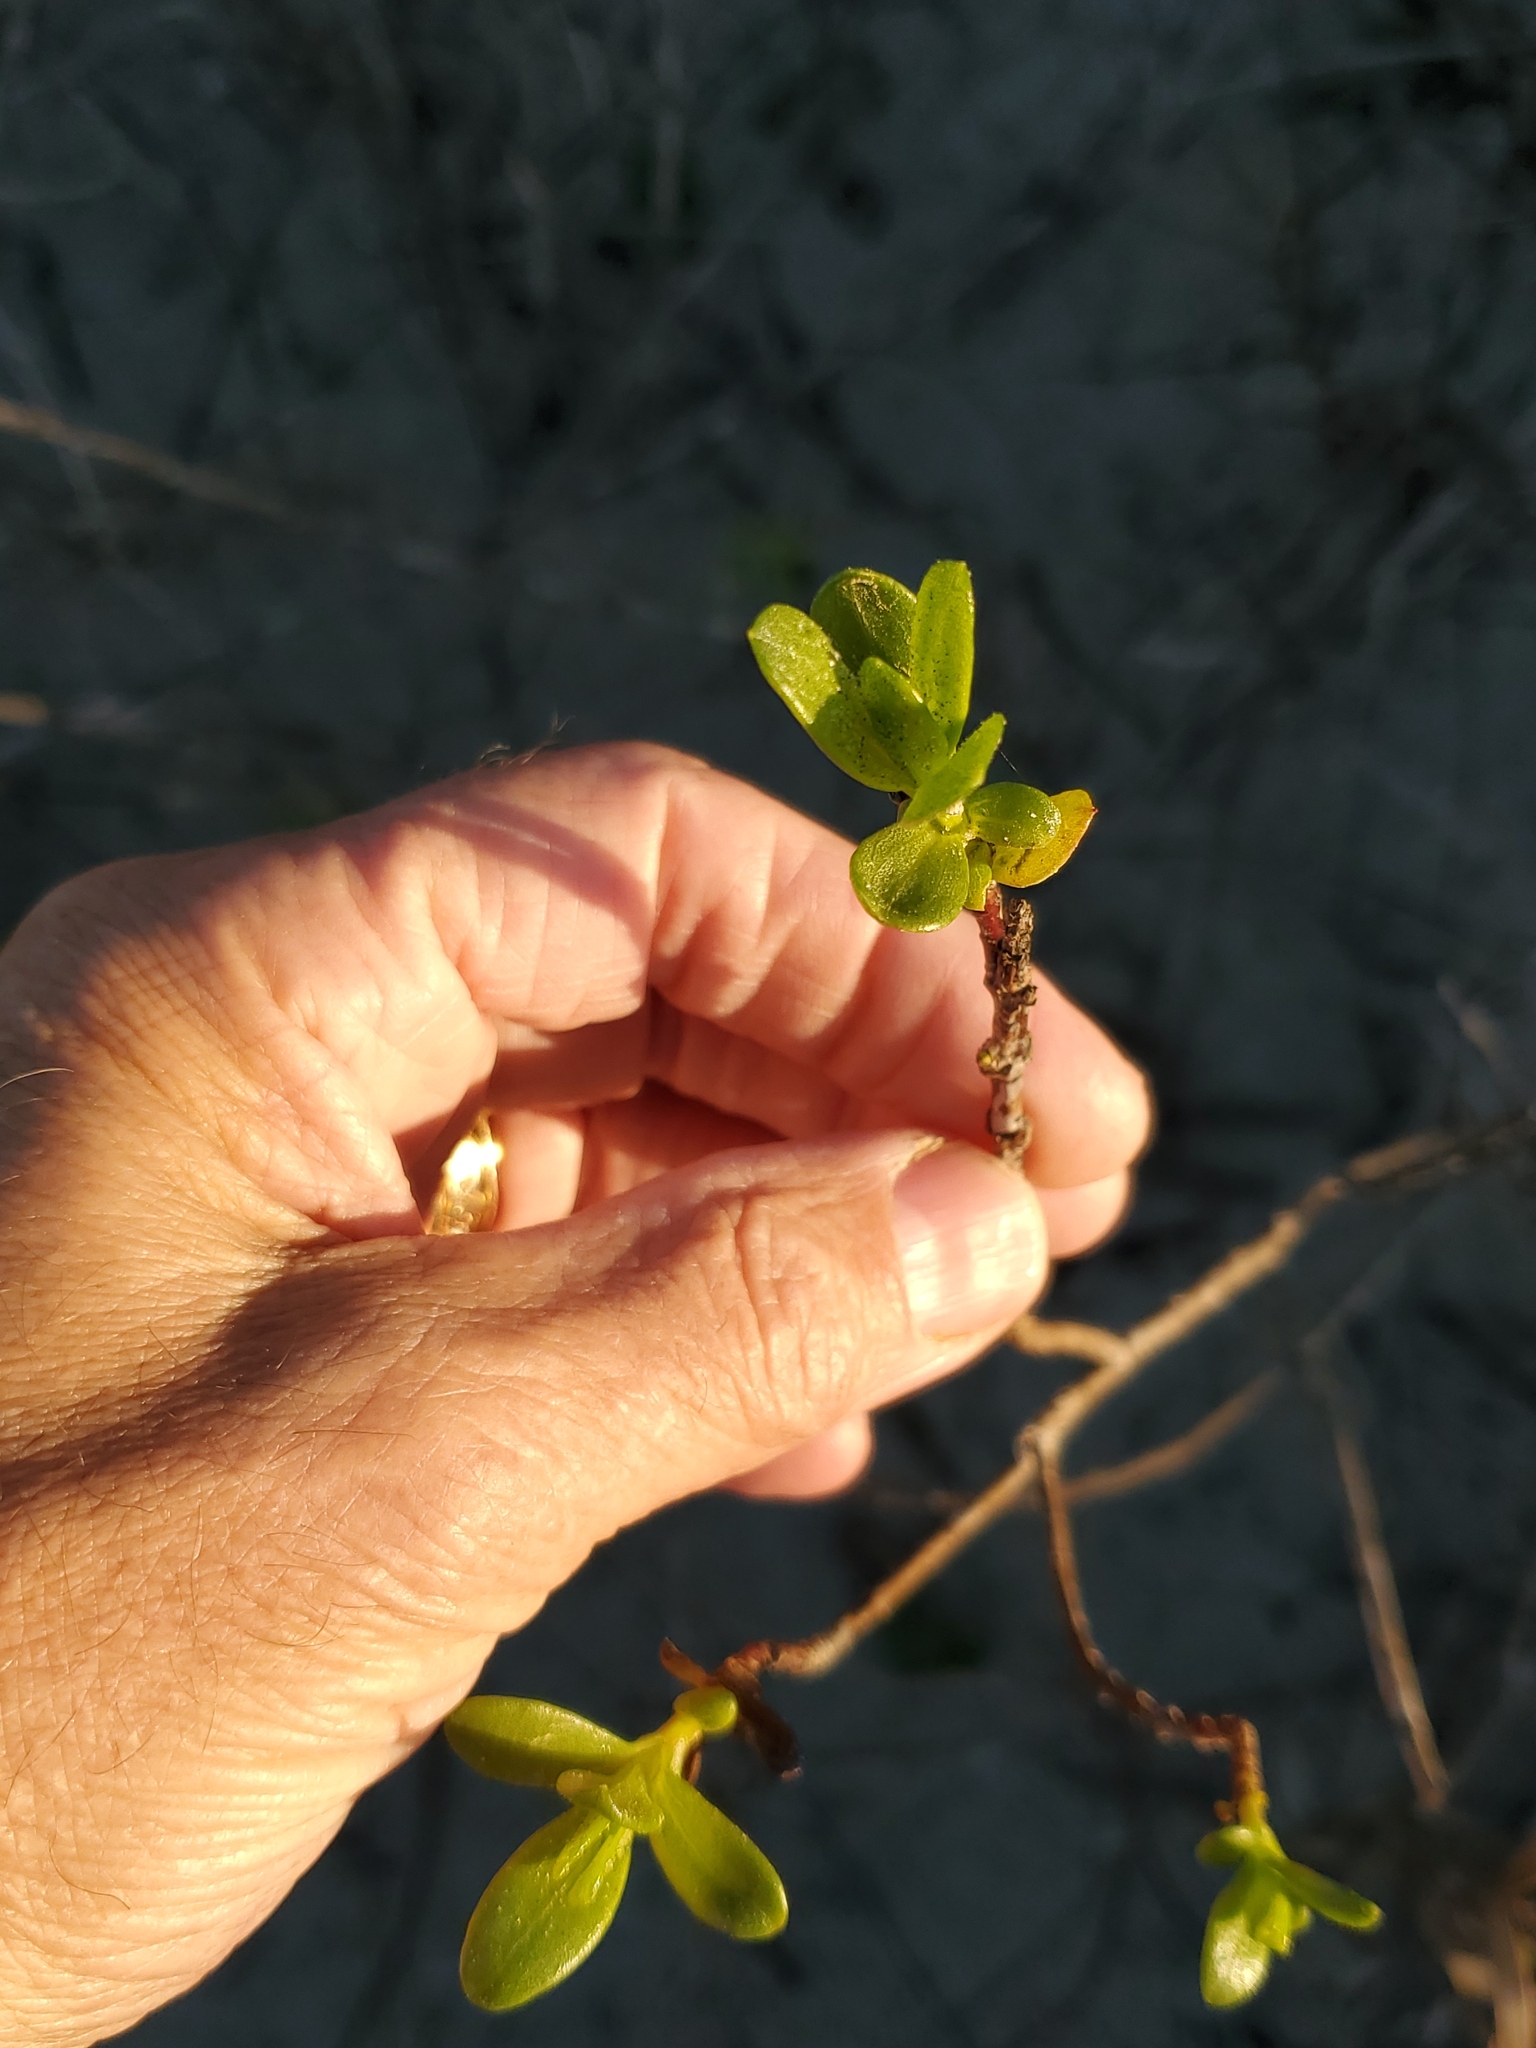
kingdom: Plantae
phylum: Tracheophyta
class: Magnoliopsida
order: Asterales
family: Asteraceae
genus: Iva
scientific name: Iva imbricata
